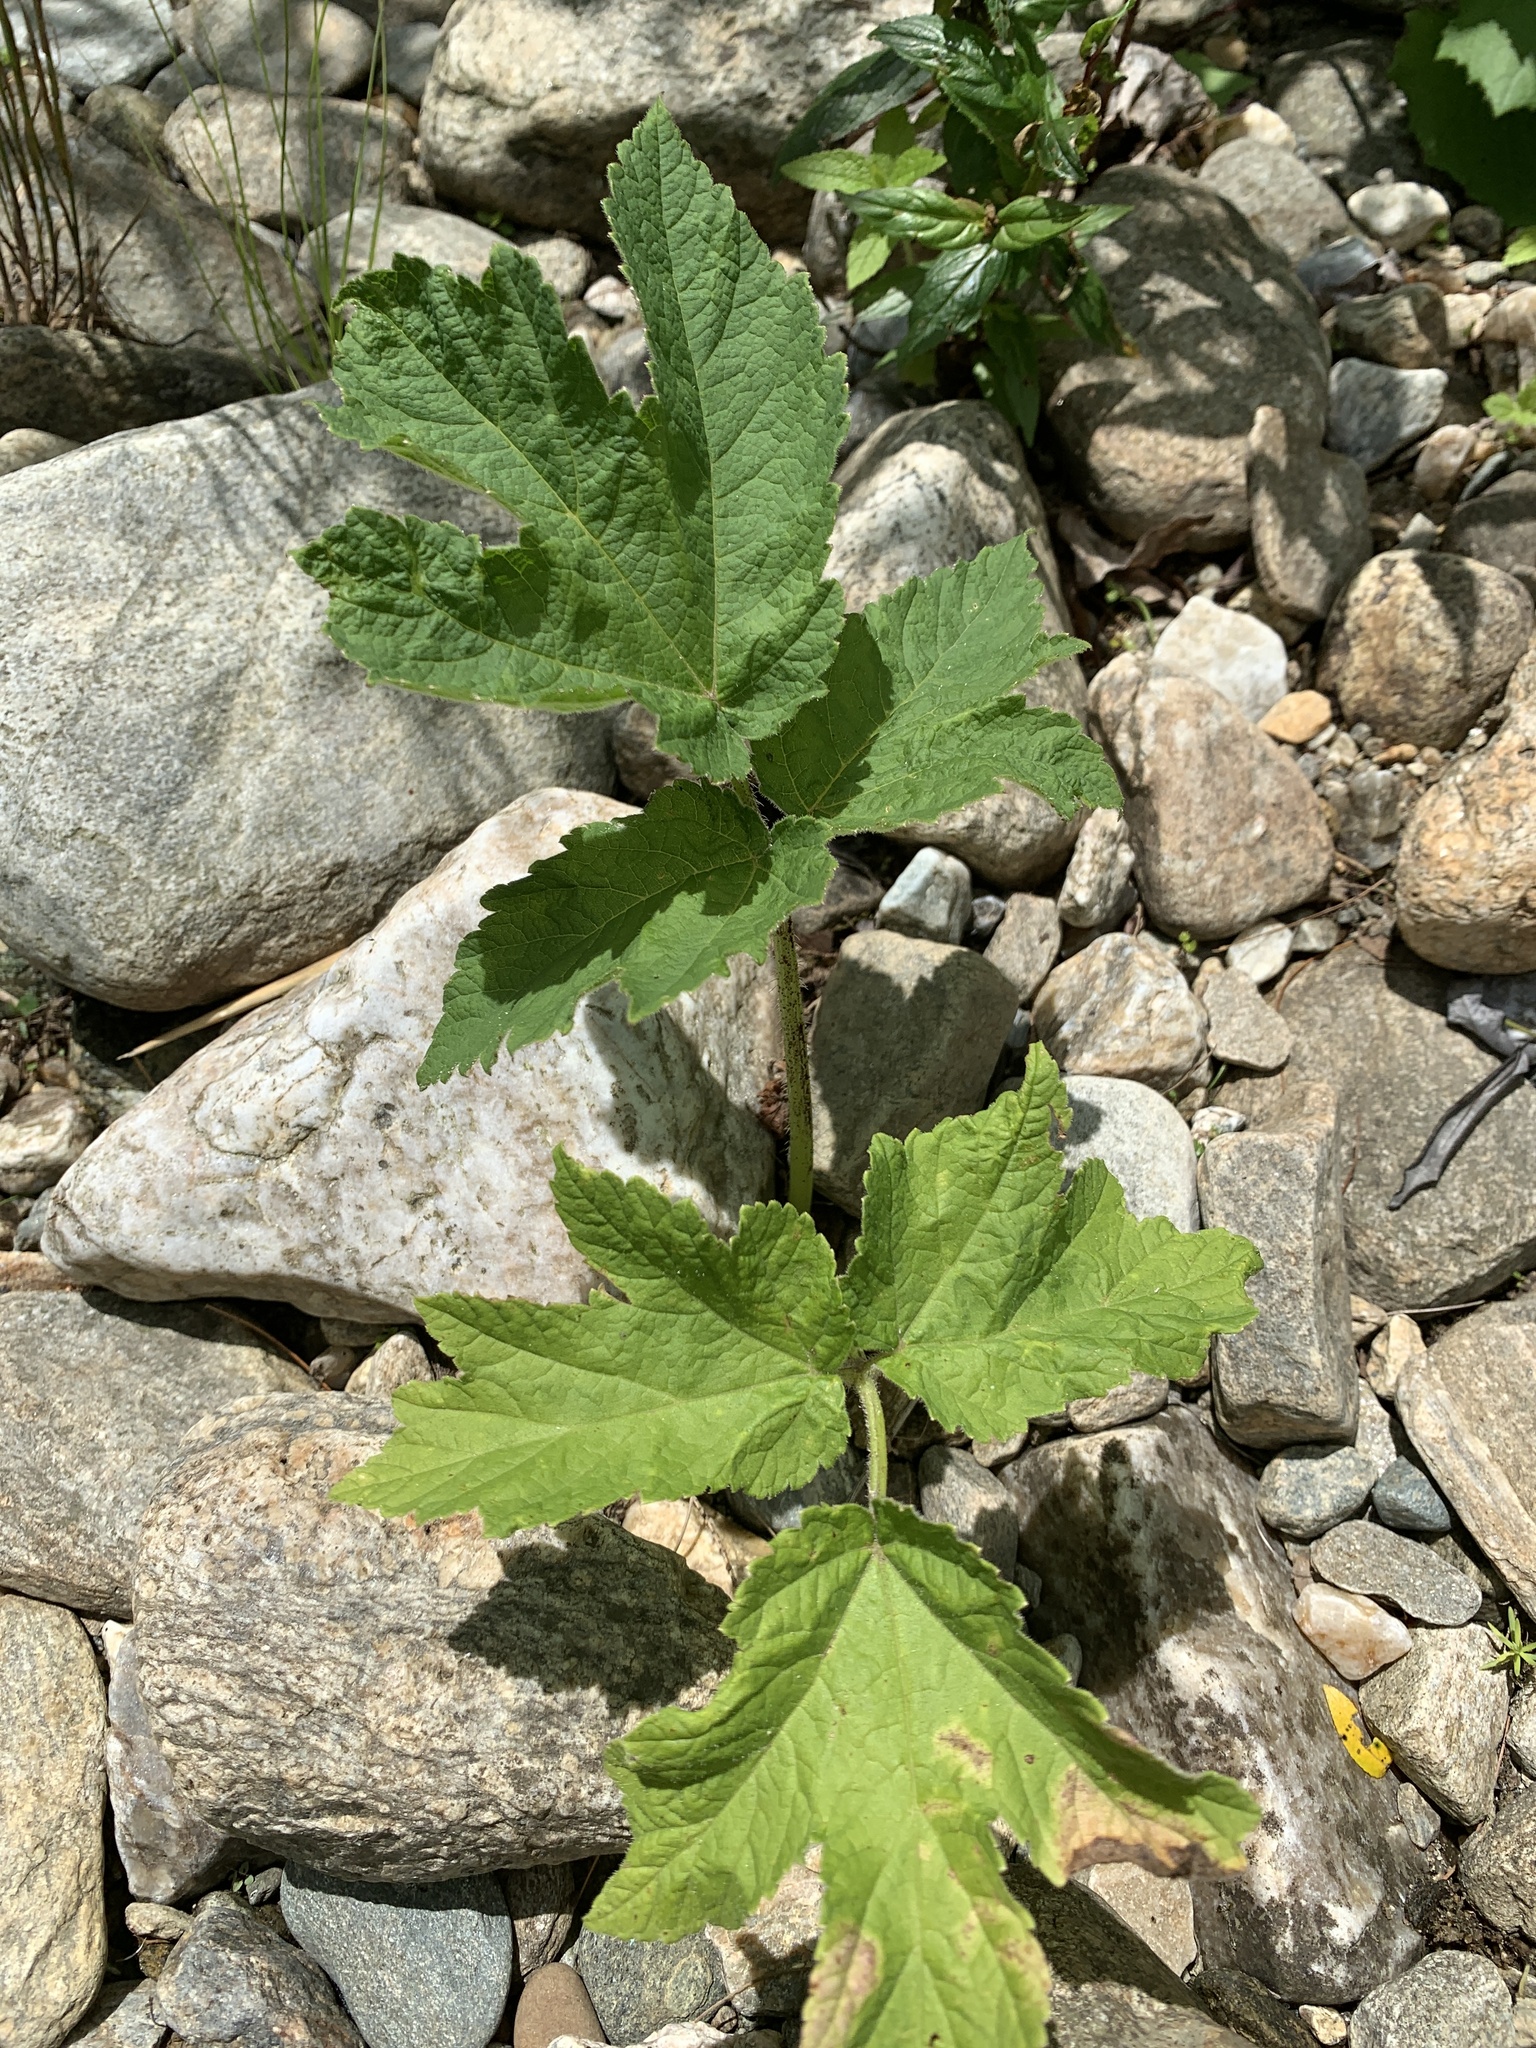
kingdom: Plantae
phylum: Tracheophyta
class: Magnoliopsida
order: Apiales
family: Apiaceae
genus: Heracleum
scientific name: Heracleum maximum
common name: American cow parsnip
